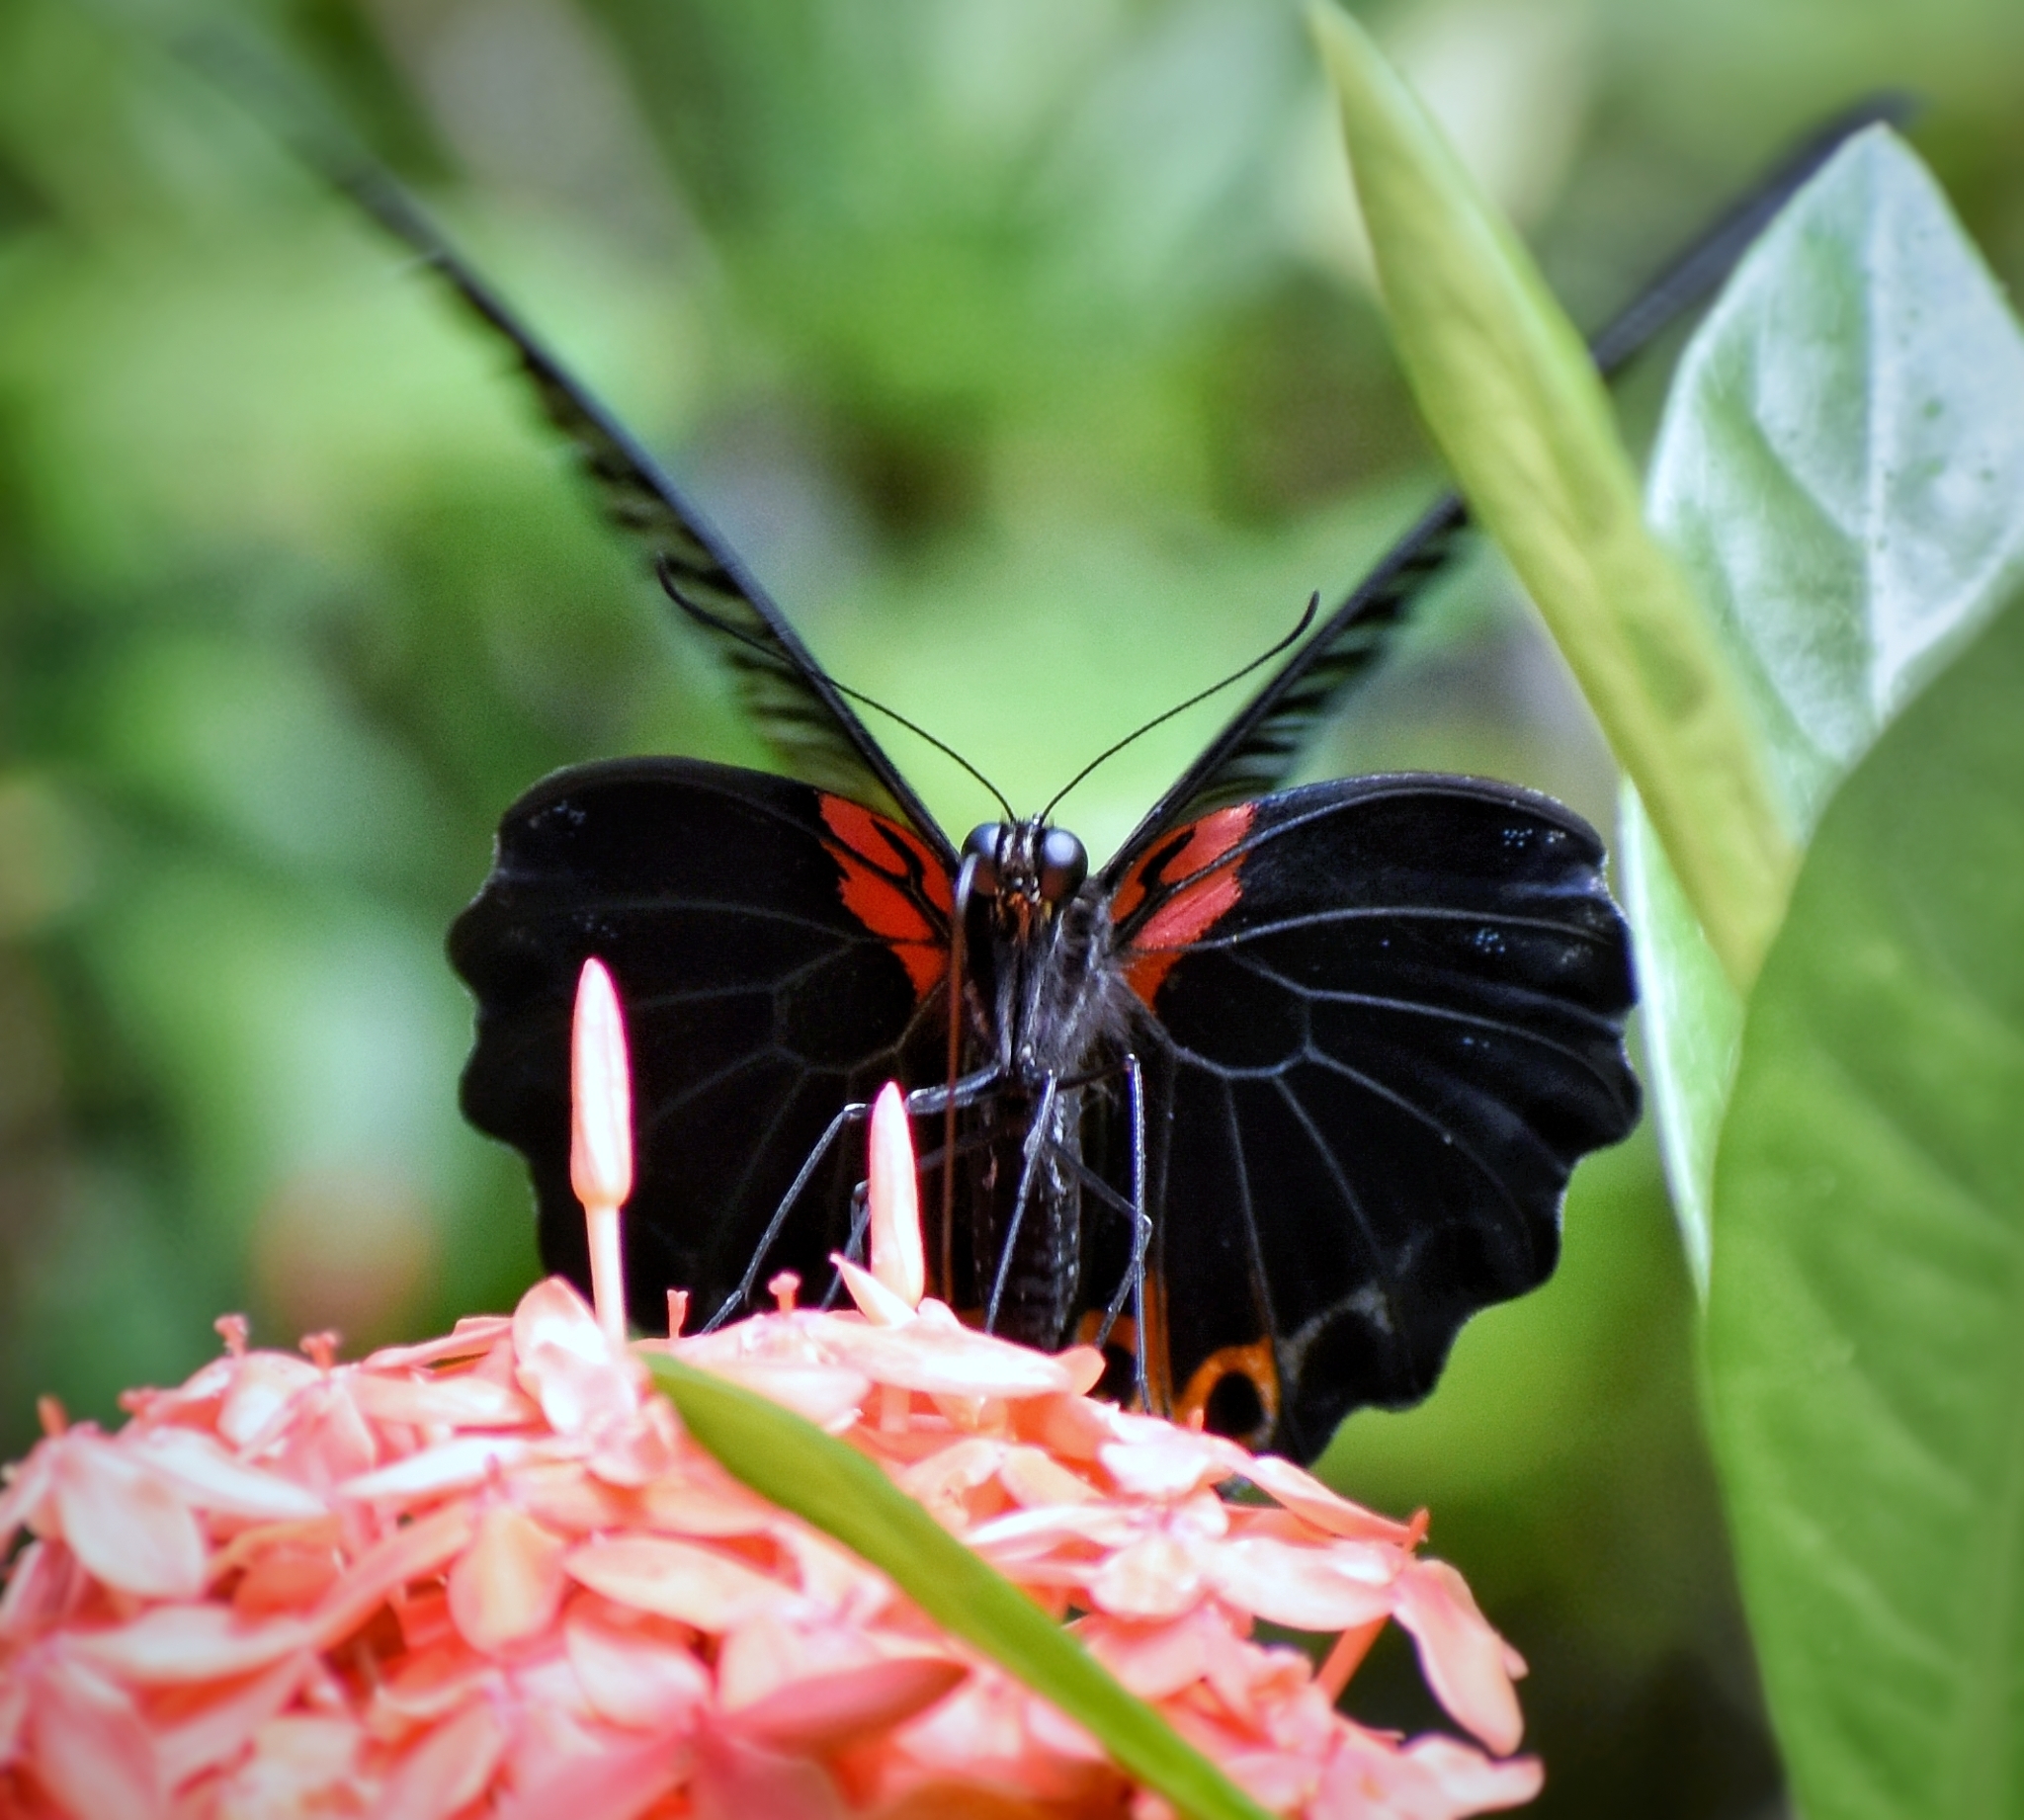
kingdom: Animalia
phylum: Arthropoda
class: Insecta
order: Lepidoptera
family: Papilionidae
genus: Papilio
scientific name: Papilio memnon
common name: Great mormon
